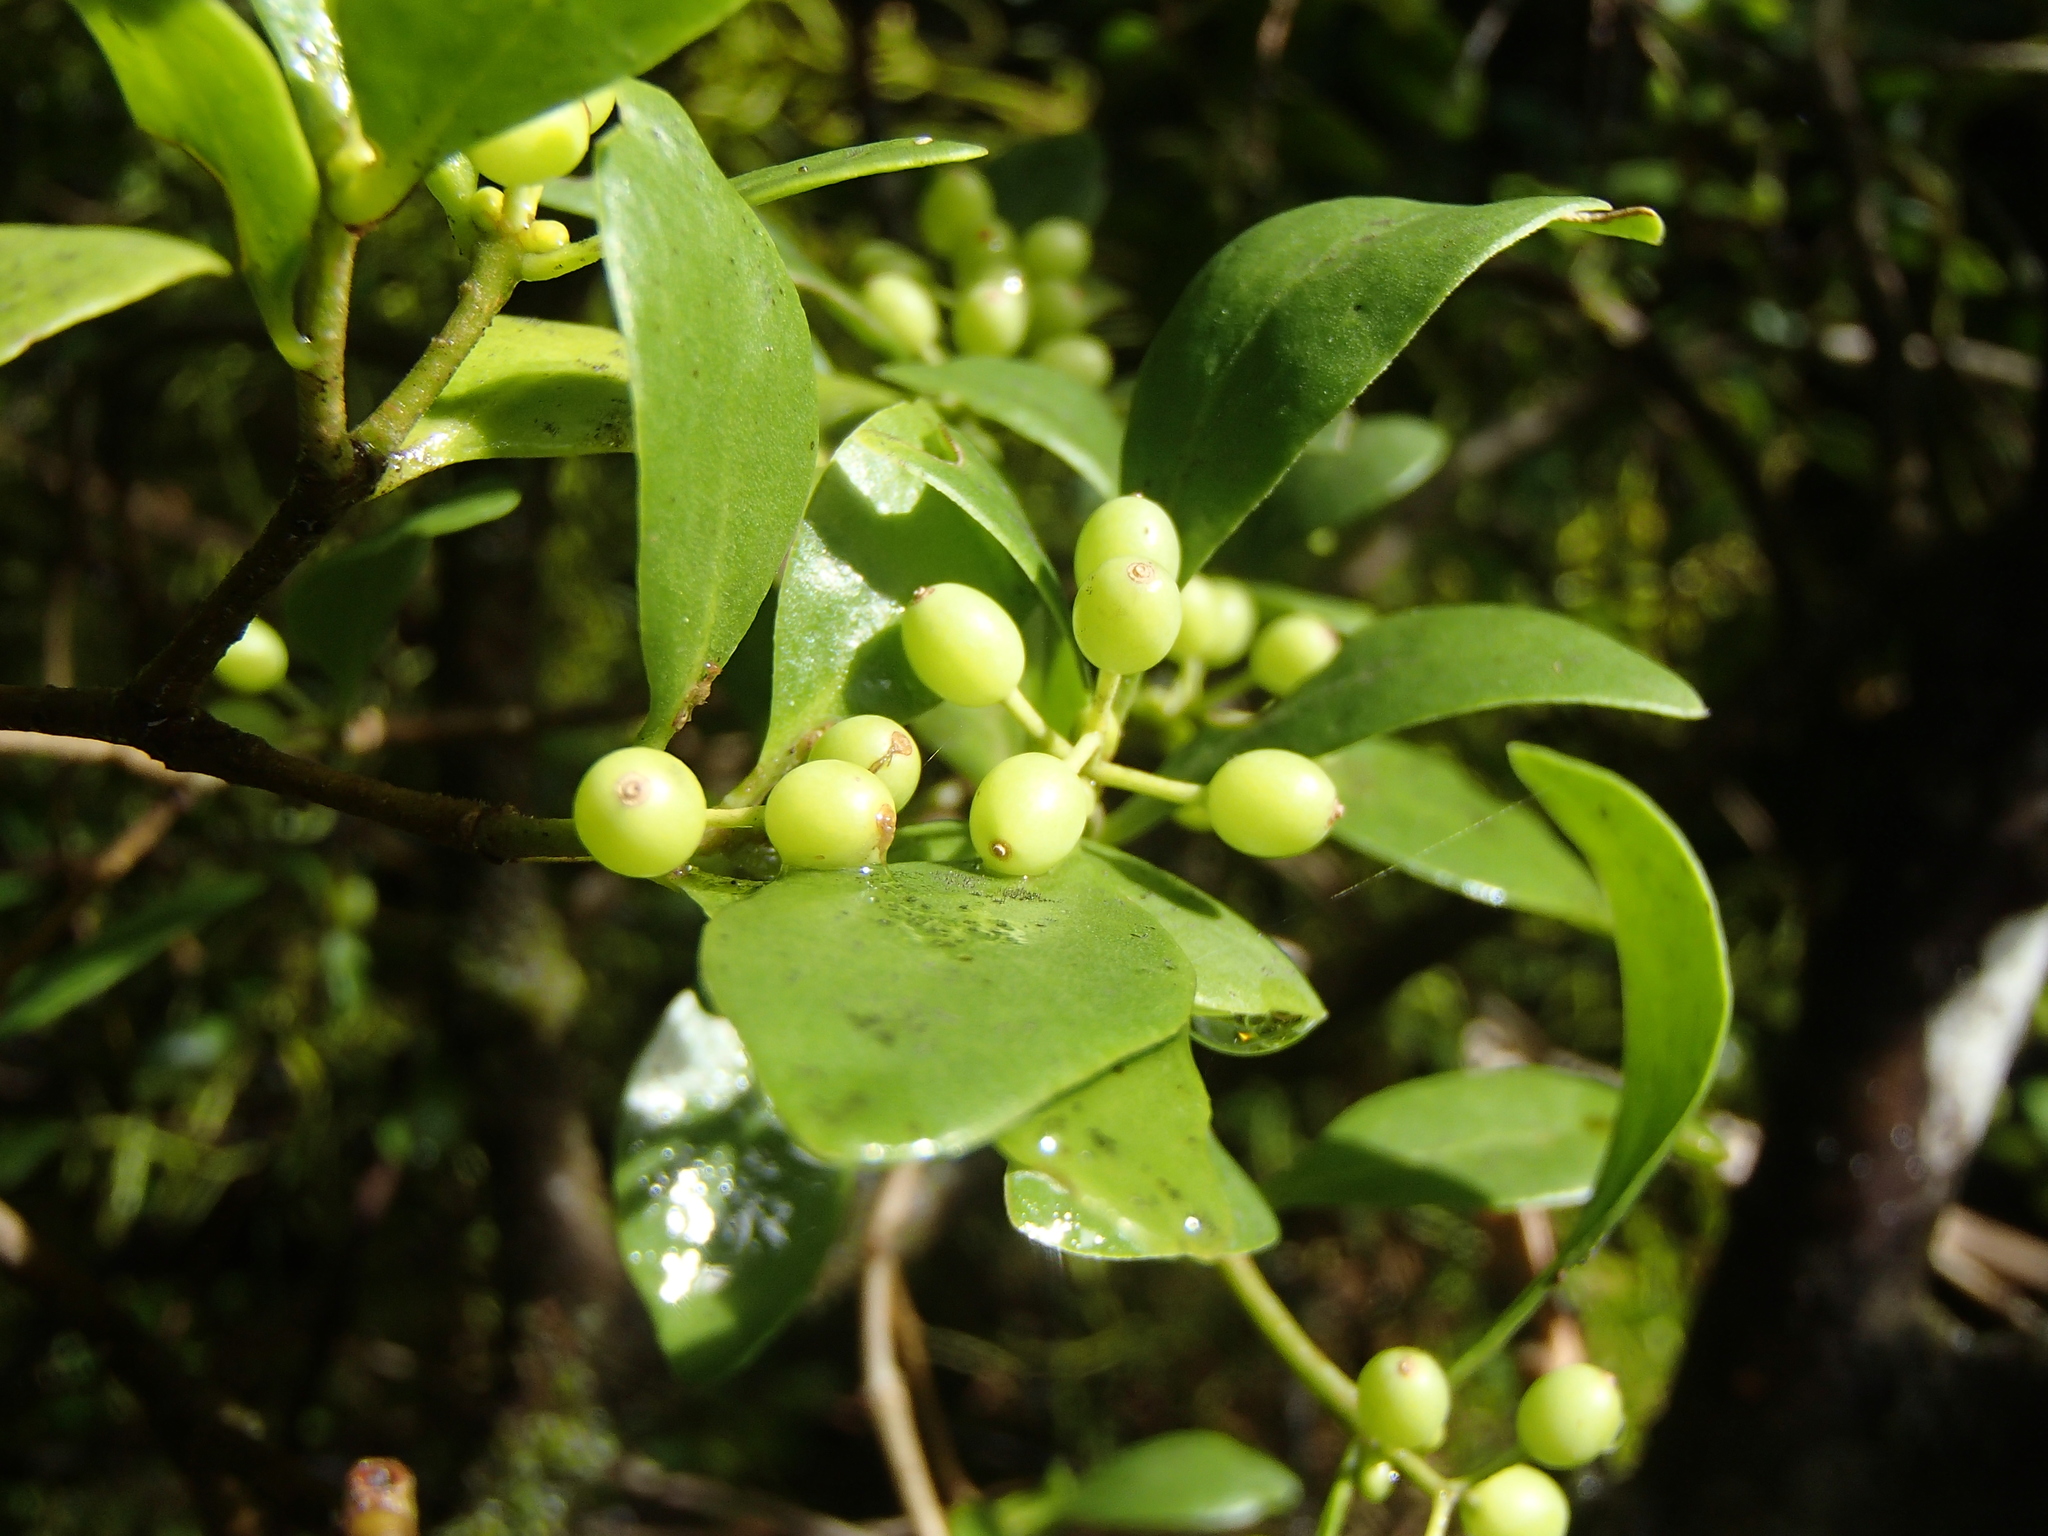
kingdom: Plantae
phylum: Tracheophyta
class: Magnoliopsida
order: Santalales
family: Loranthaceae
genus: Tupeia
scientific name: Tupeia antarctica
